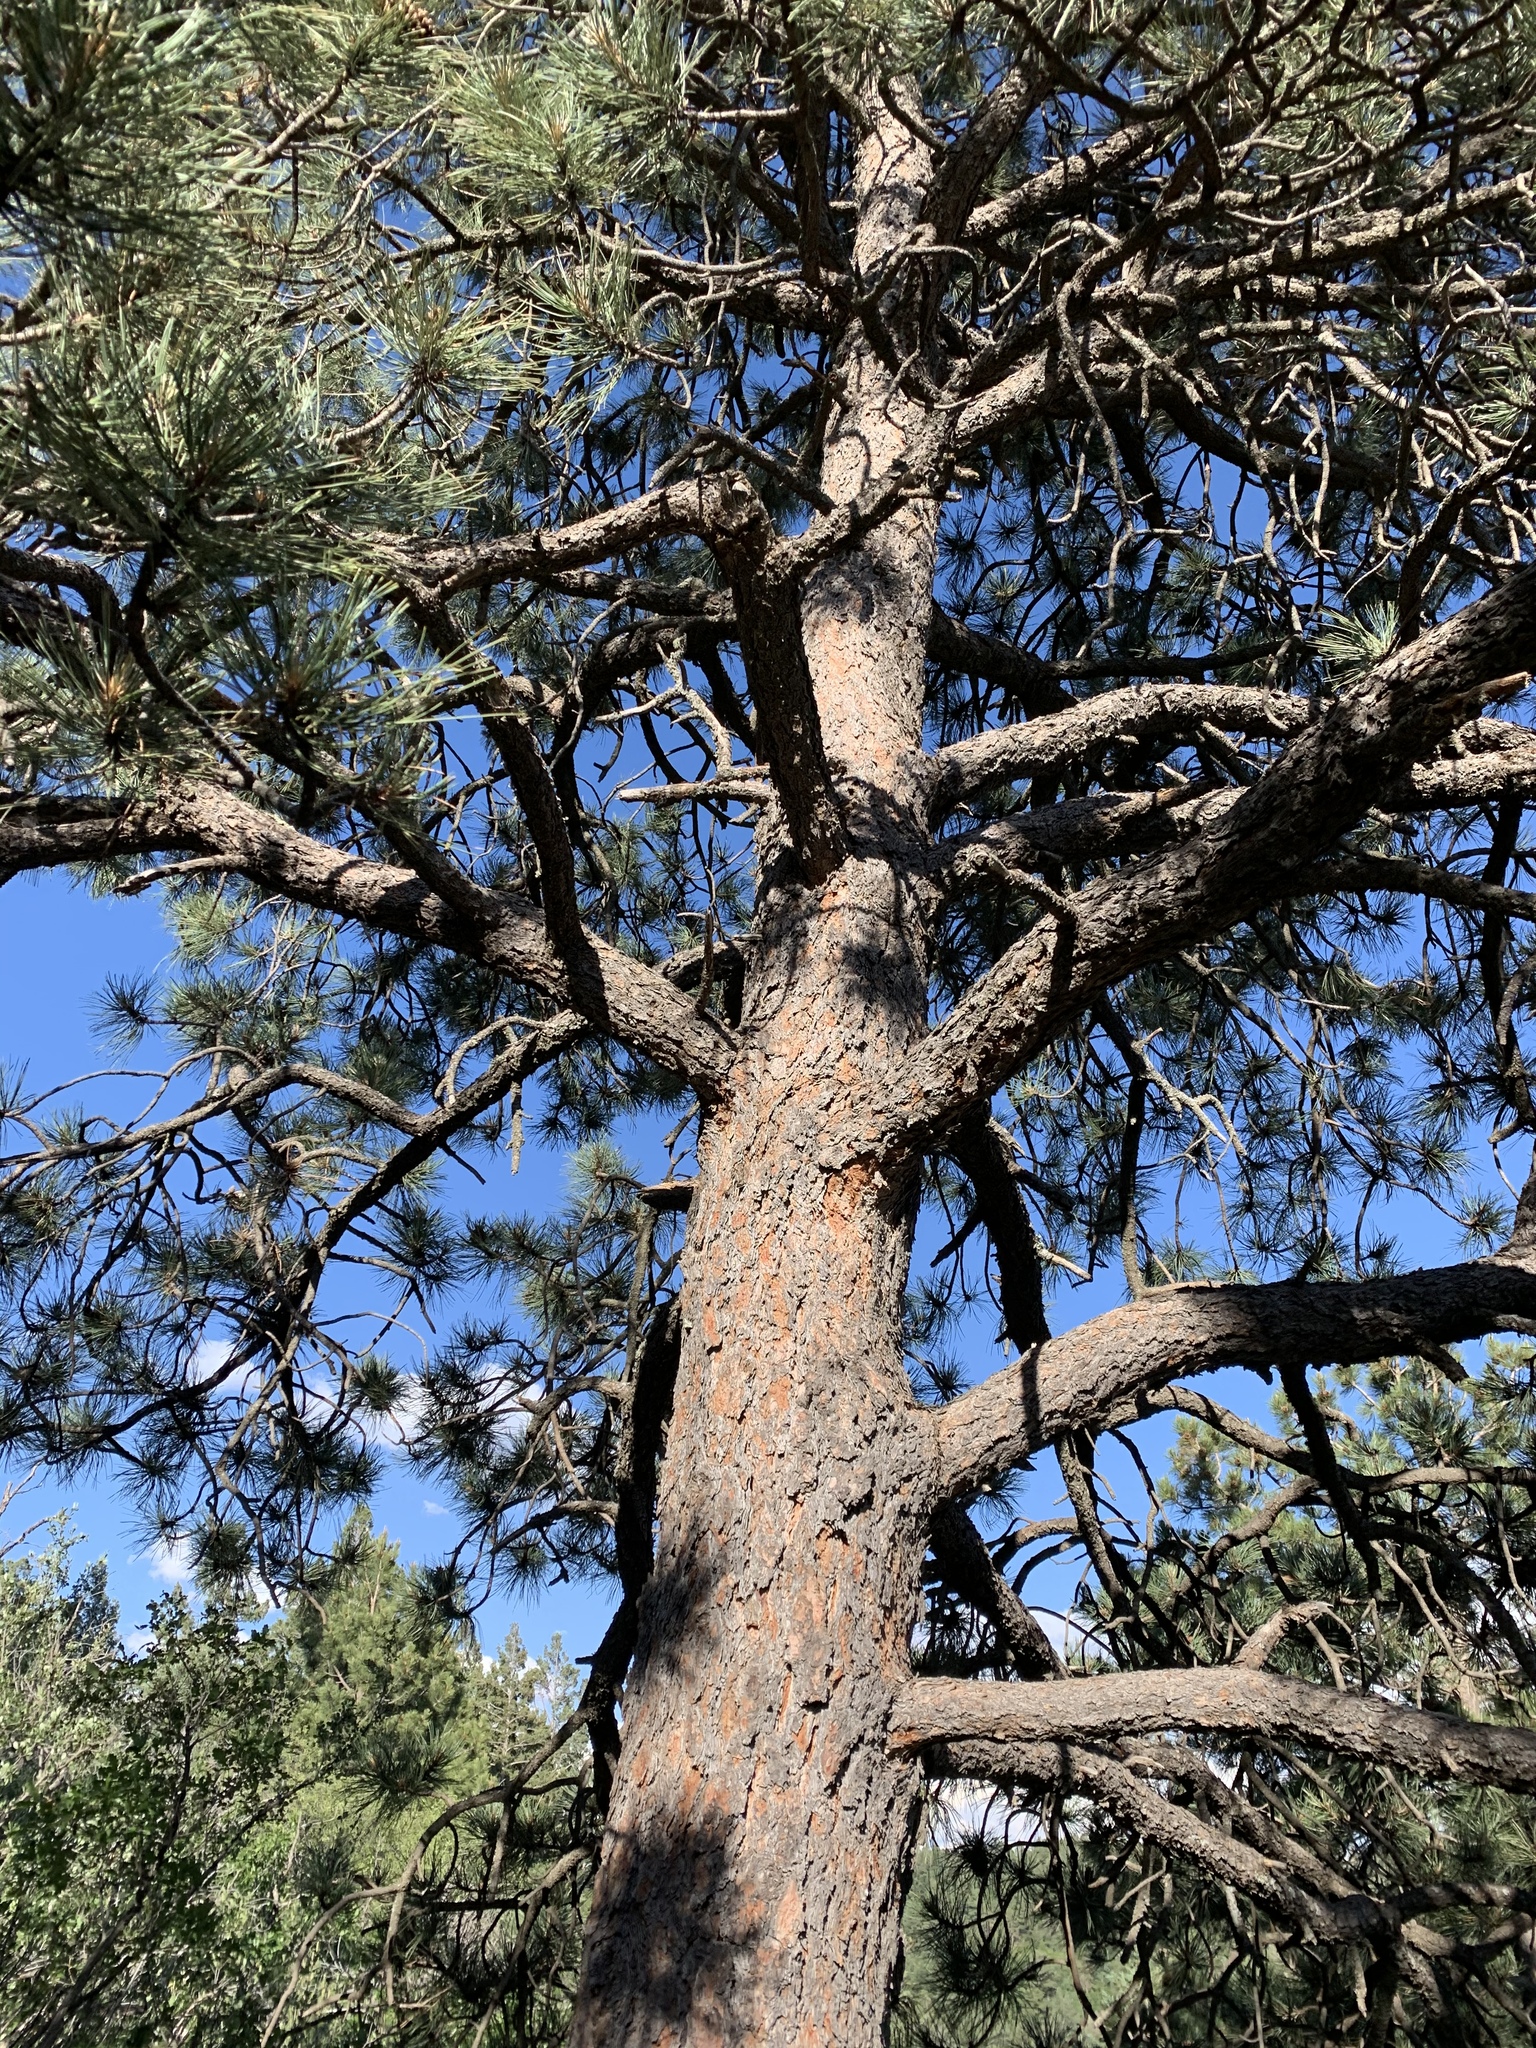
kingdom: Plantae
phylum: Tracheophyta
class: Pinopsida
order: Pinales
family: Pinaceae
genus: Pinus
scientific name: Pinus ponderosa
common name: Western yellow-pine
